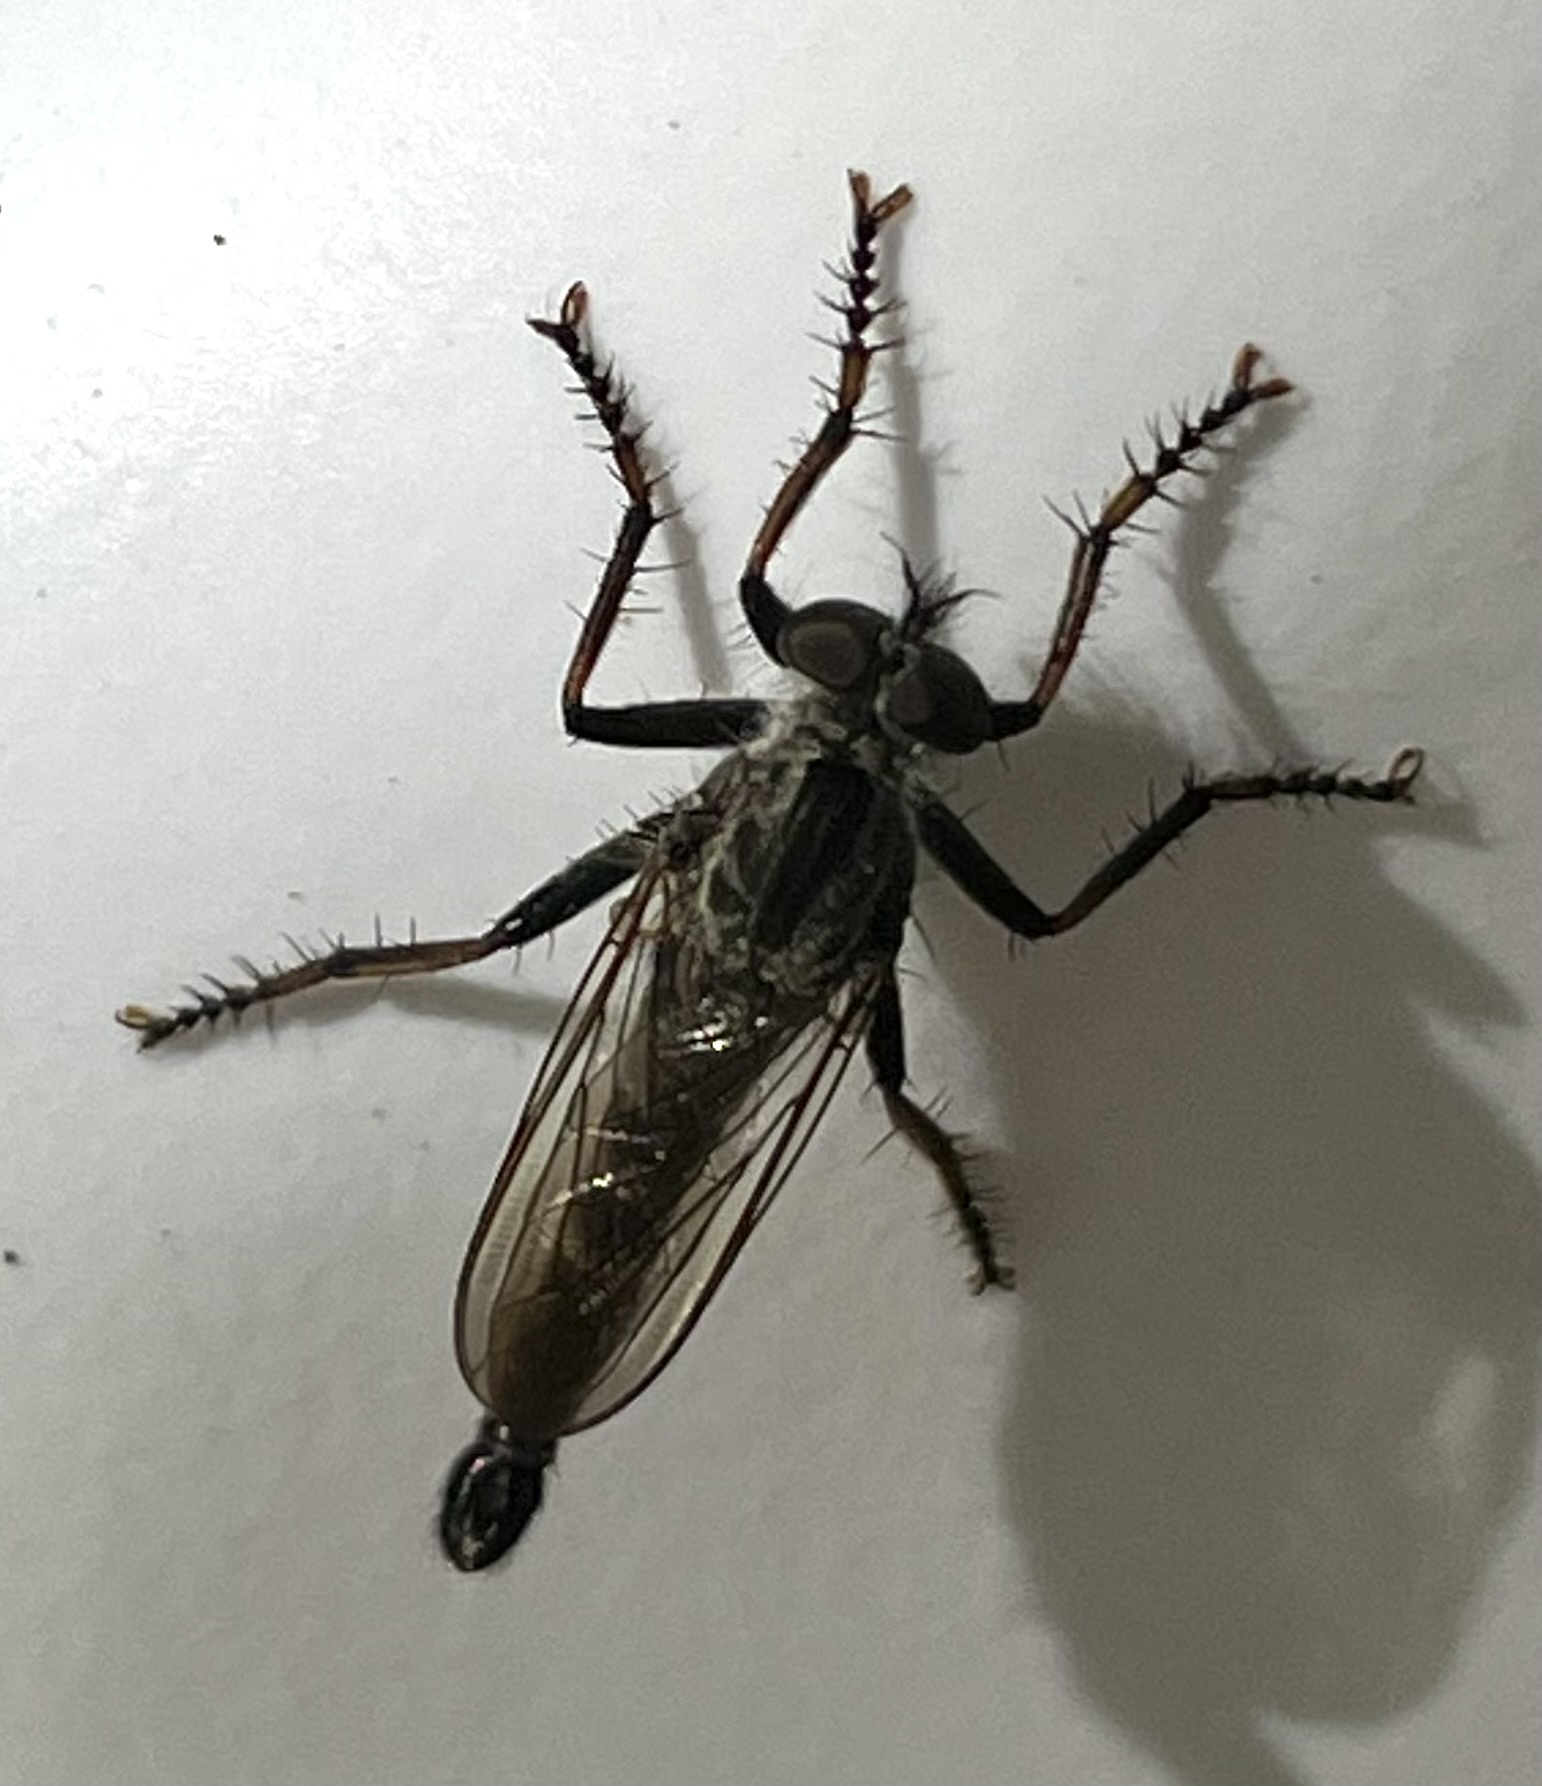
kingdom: Animalia
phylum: Arthropoda
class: Insecta
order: Diptera
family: Asilidae
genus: Machimus
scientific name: Machimus sadyates
